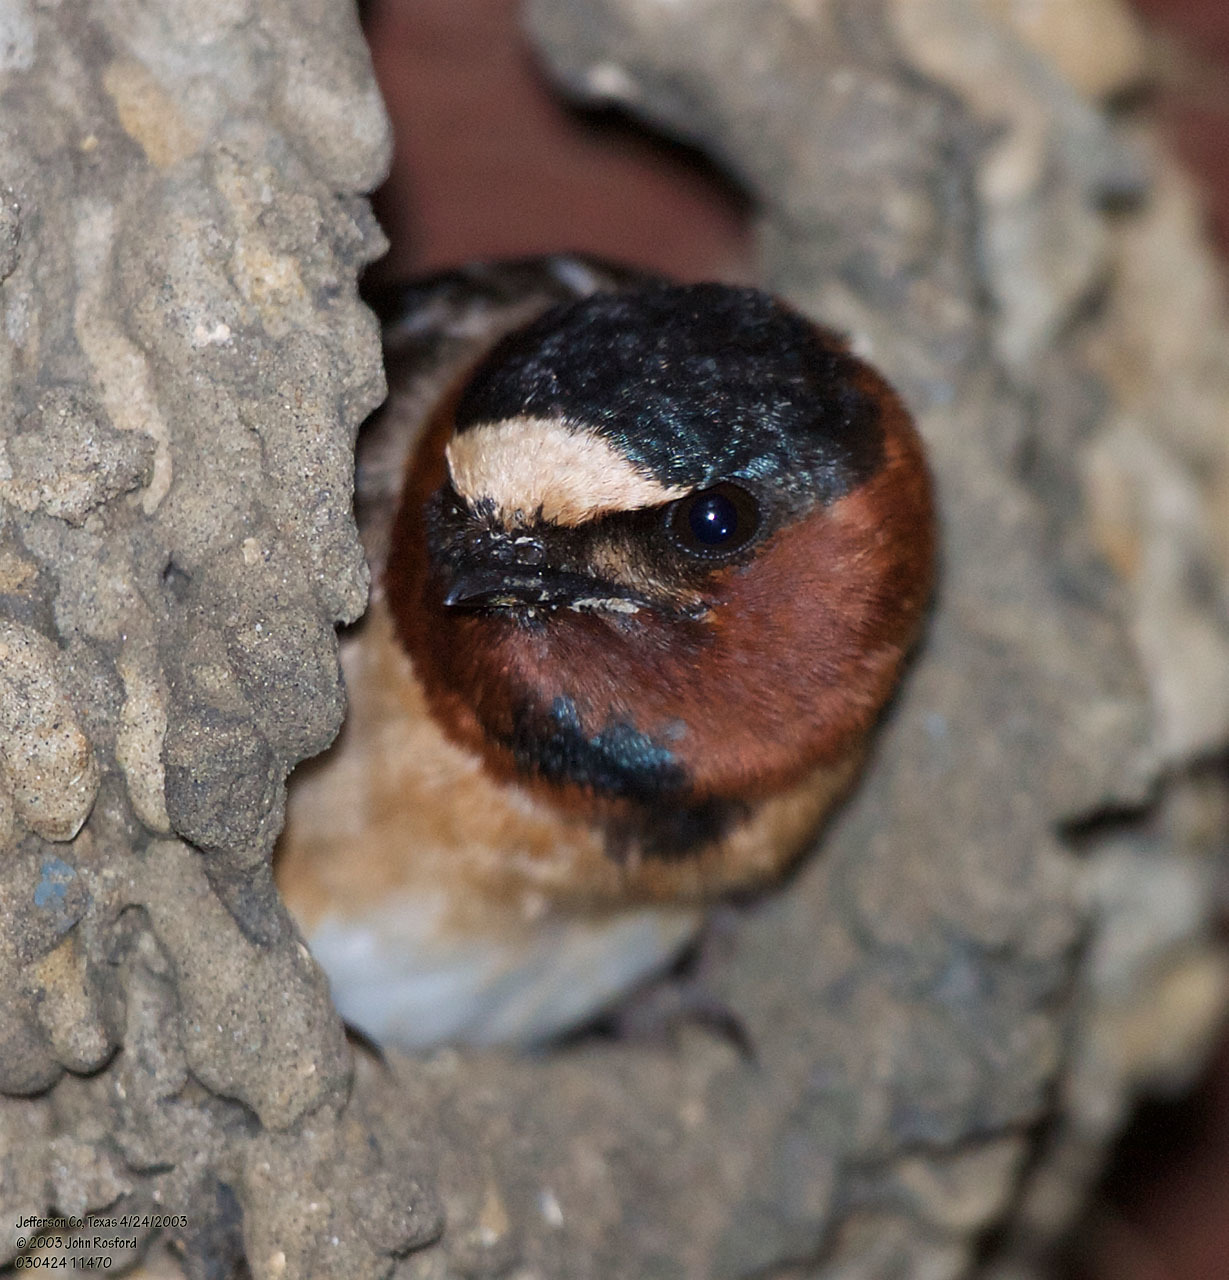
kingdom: Animalia
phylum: Chordata
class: Aves
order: Passeriformes
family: Hirundinidae
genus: Petrochelidon
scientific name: Petrochelidon pyrrhonota
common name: American cliff swallow
